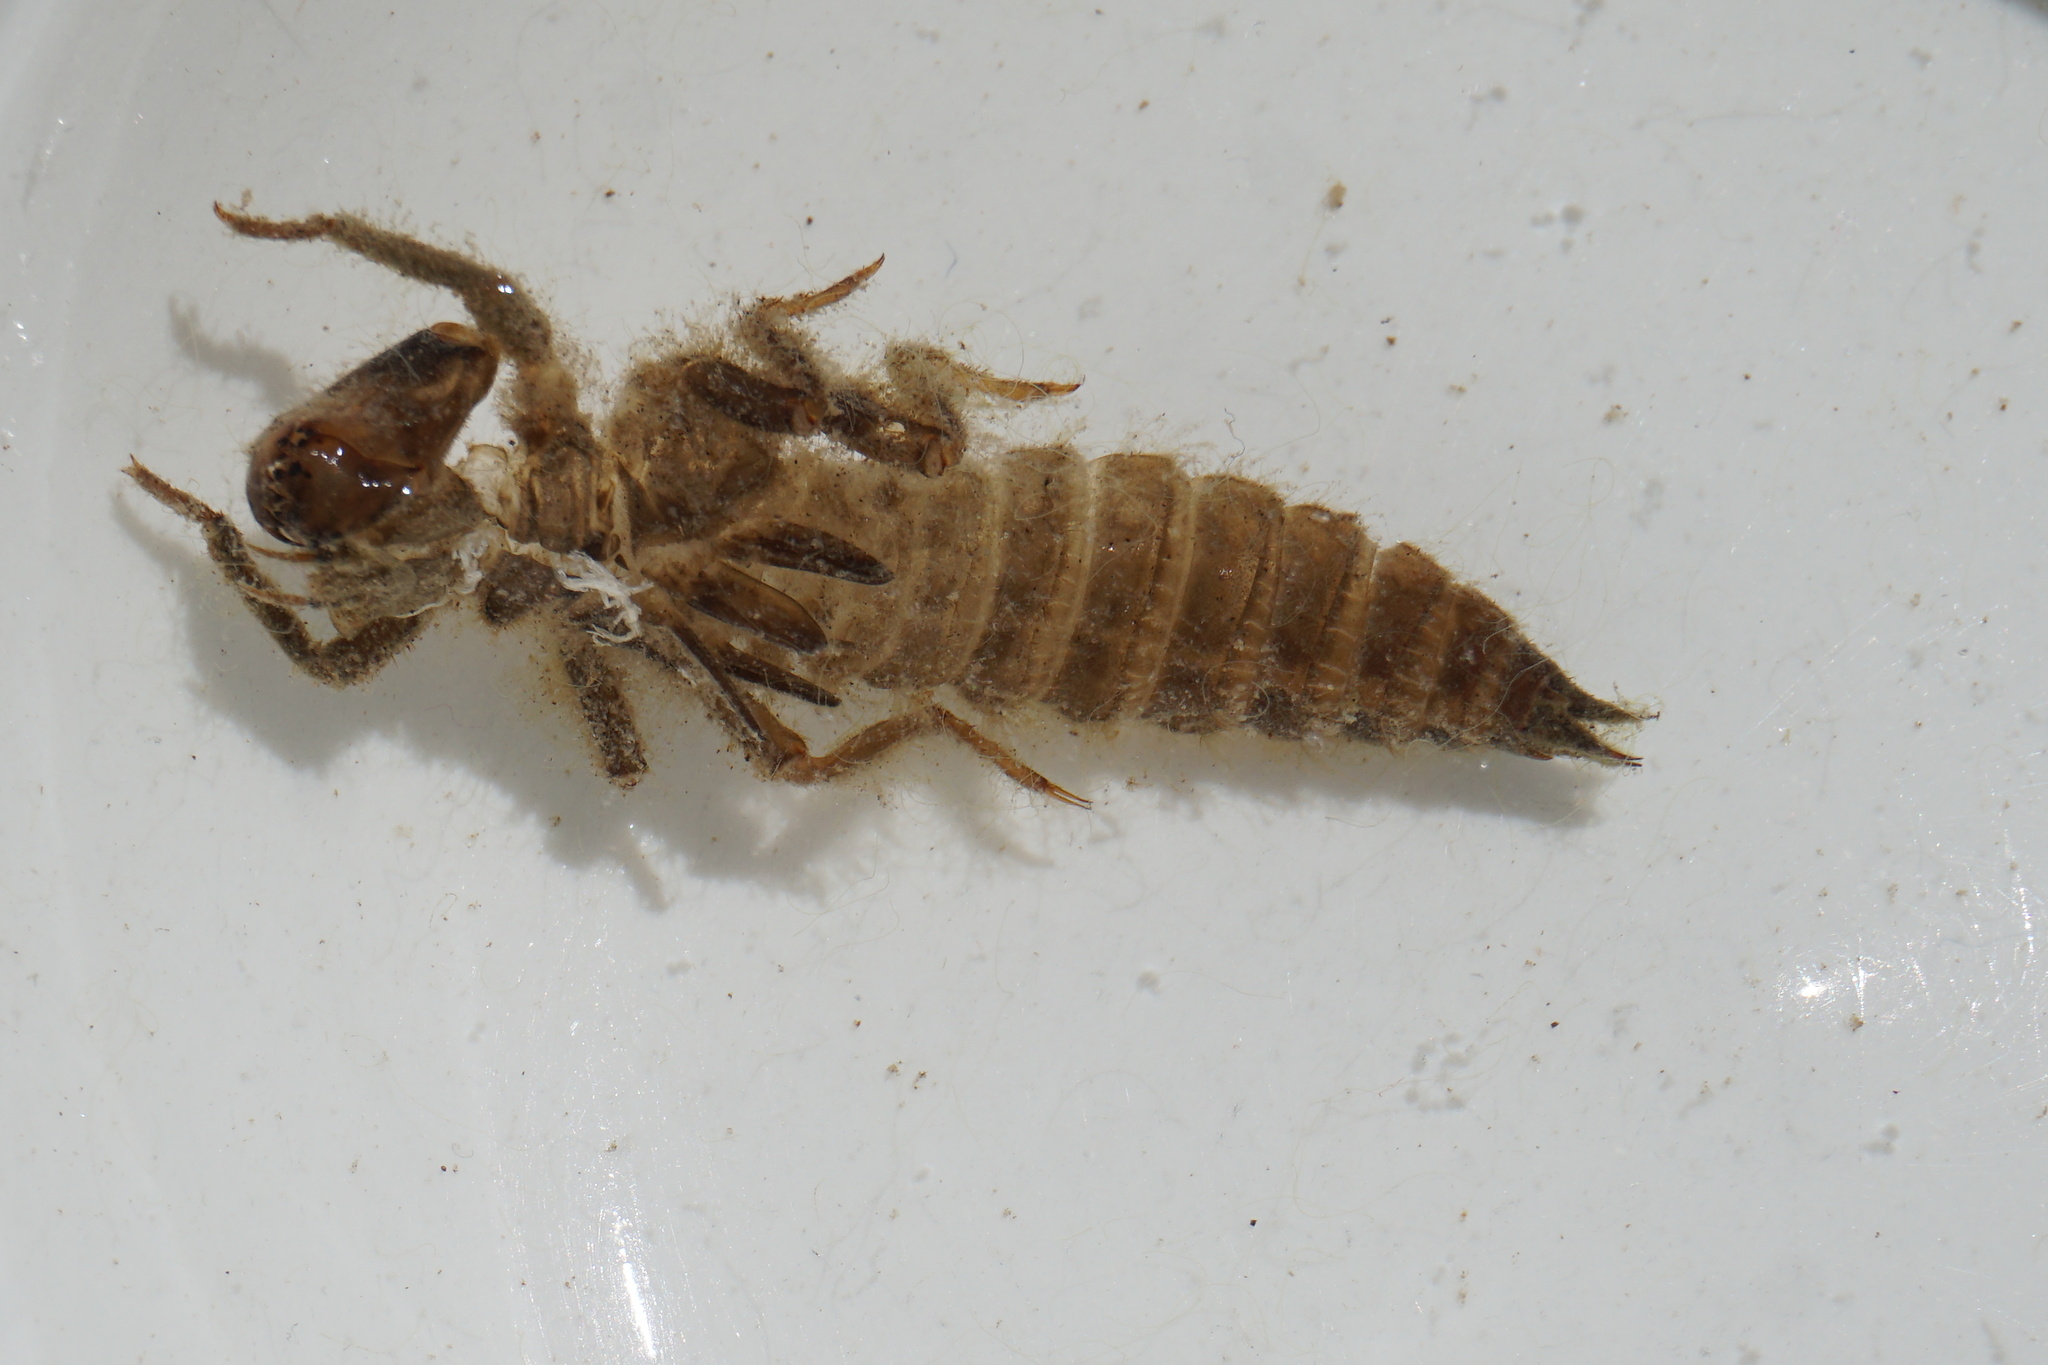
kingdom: Animalia
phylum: Arthropoda
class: Insecta
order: Odonata
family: Cordulegastridae
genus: Cordulegaster
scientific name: Cordulegaster bidentata
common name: Sombre goldenring
